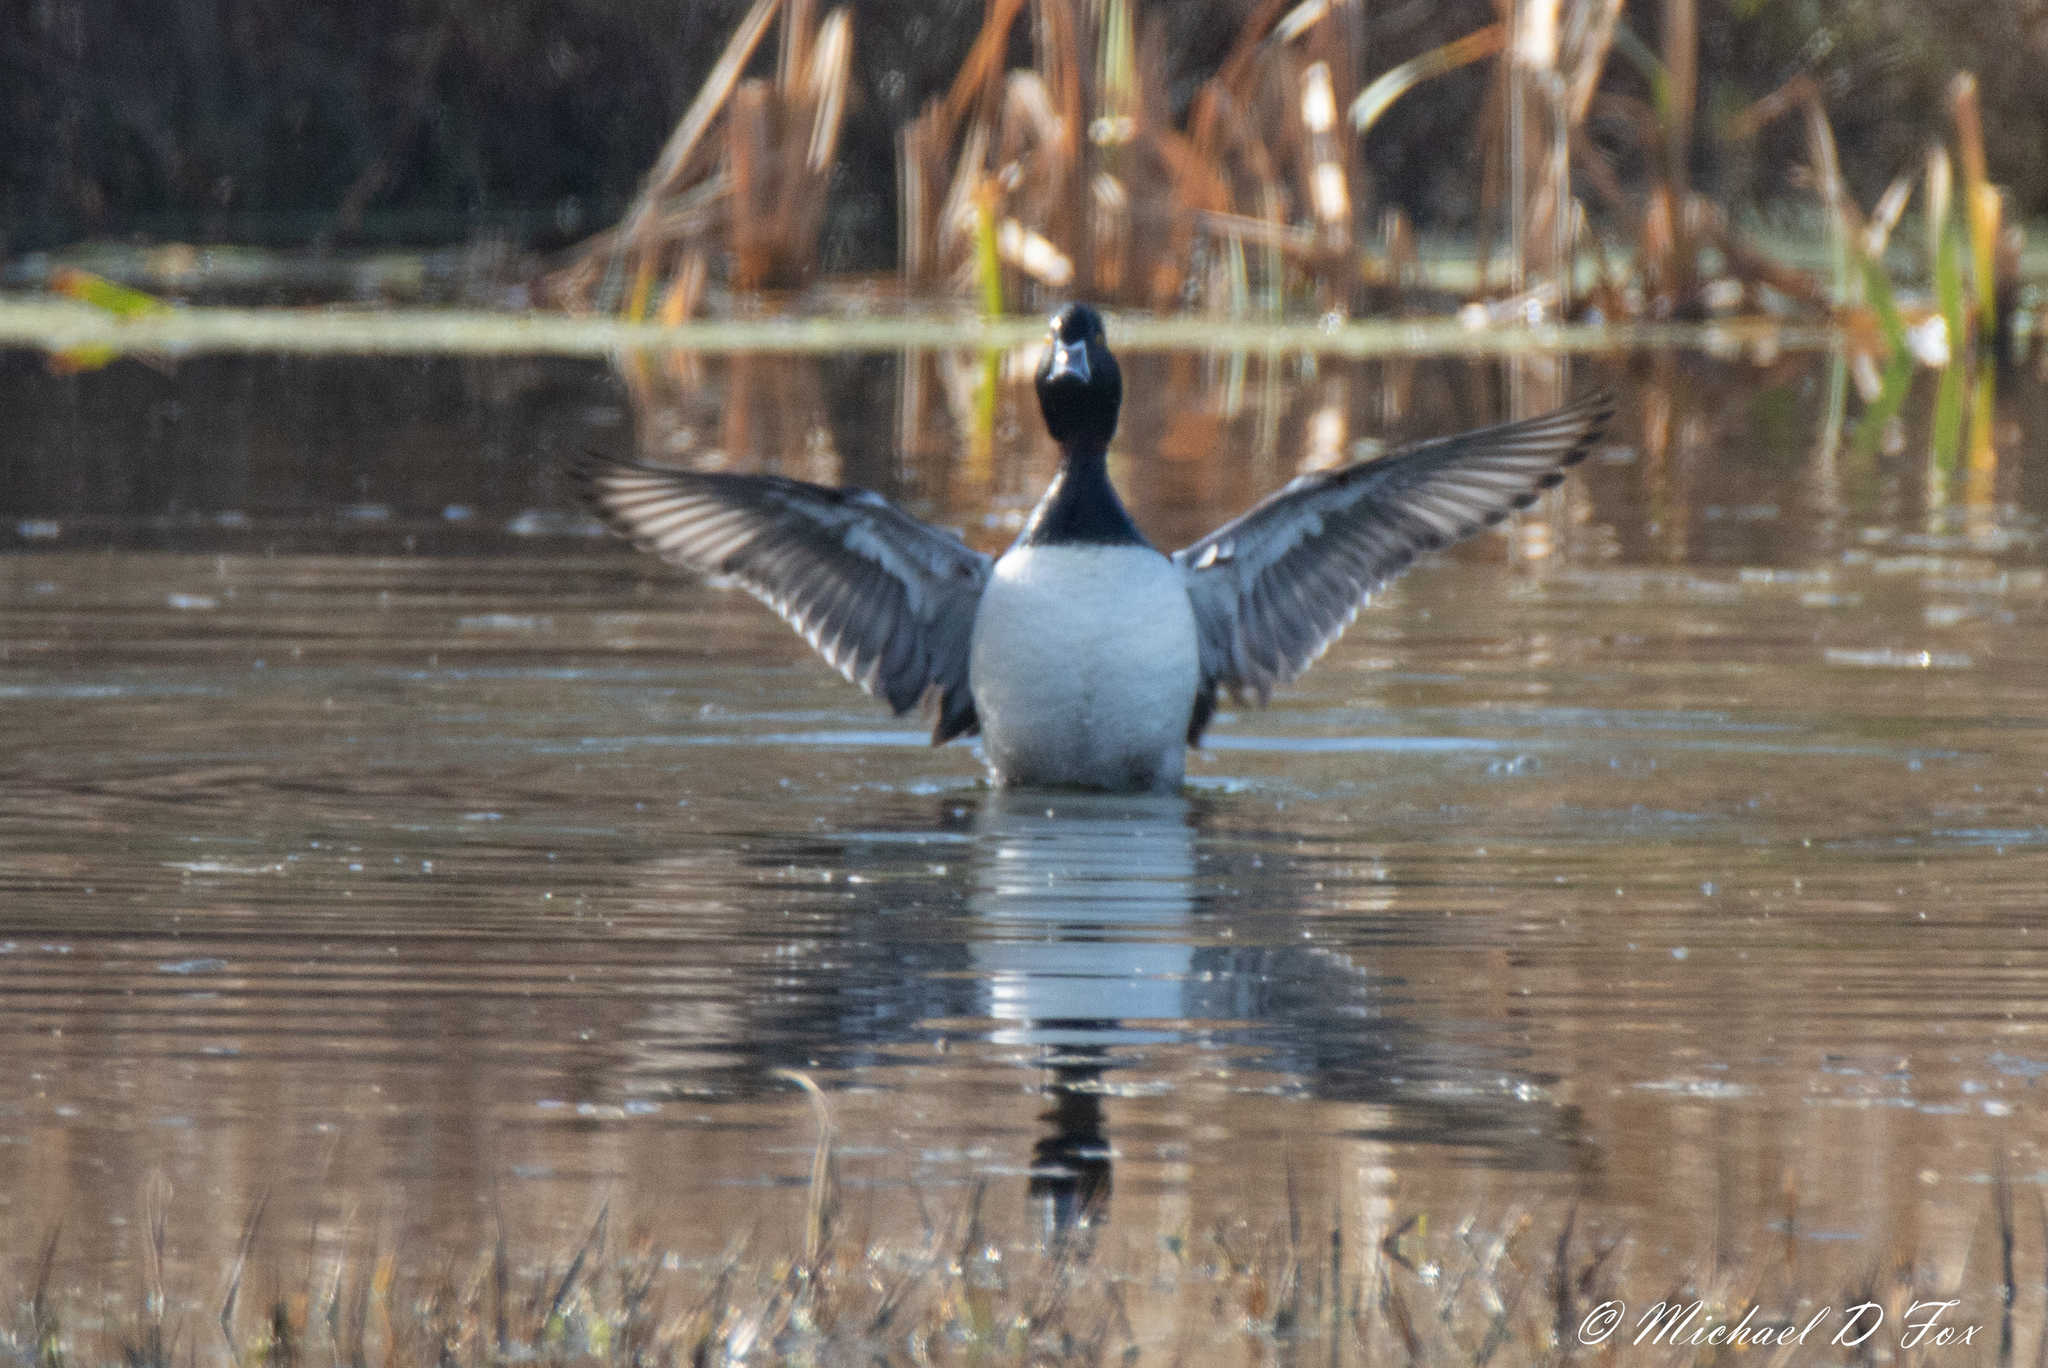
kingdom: Animalia
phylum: Chordata
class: Aves
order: Anseriformes
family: Anatidae
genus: Aythya
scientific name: Aythya collaris
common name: Ring-necked duck
